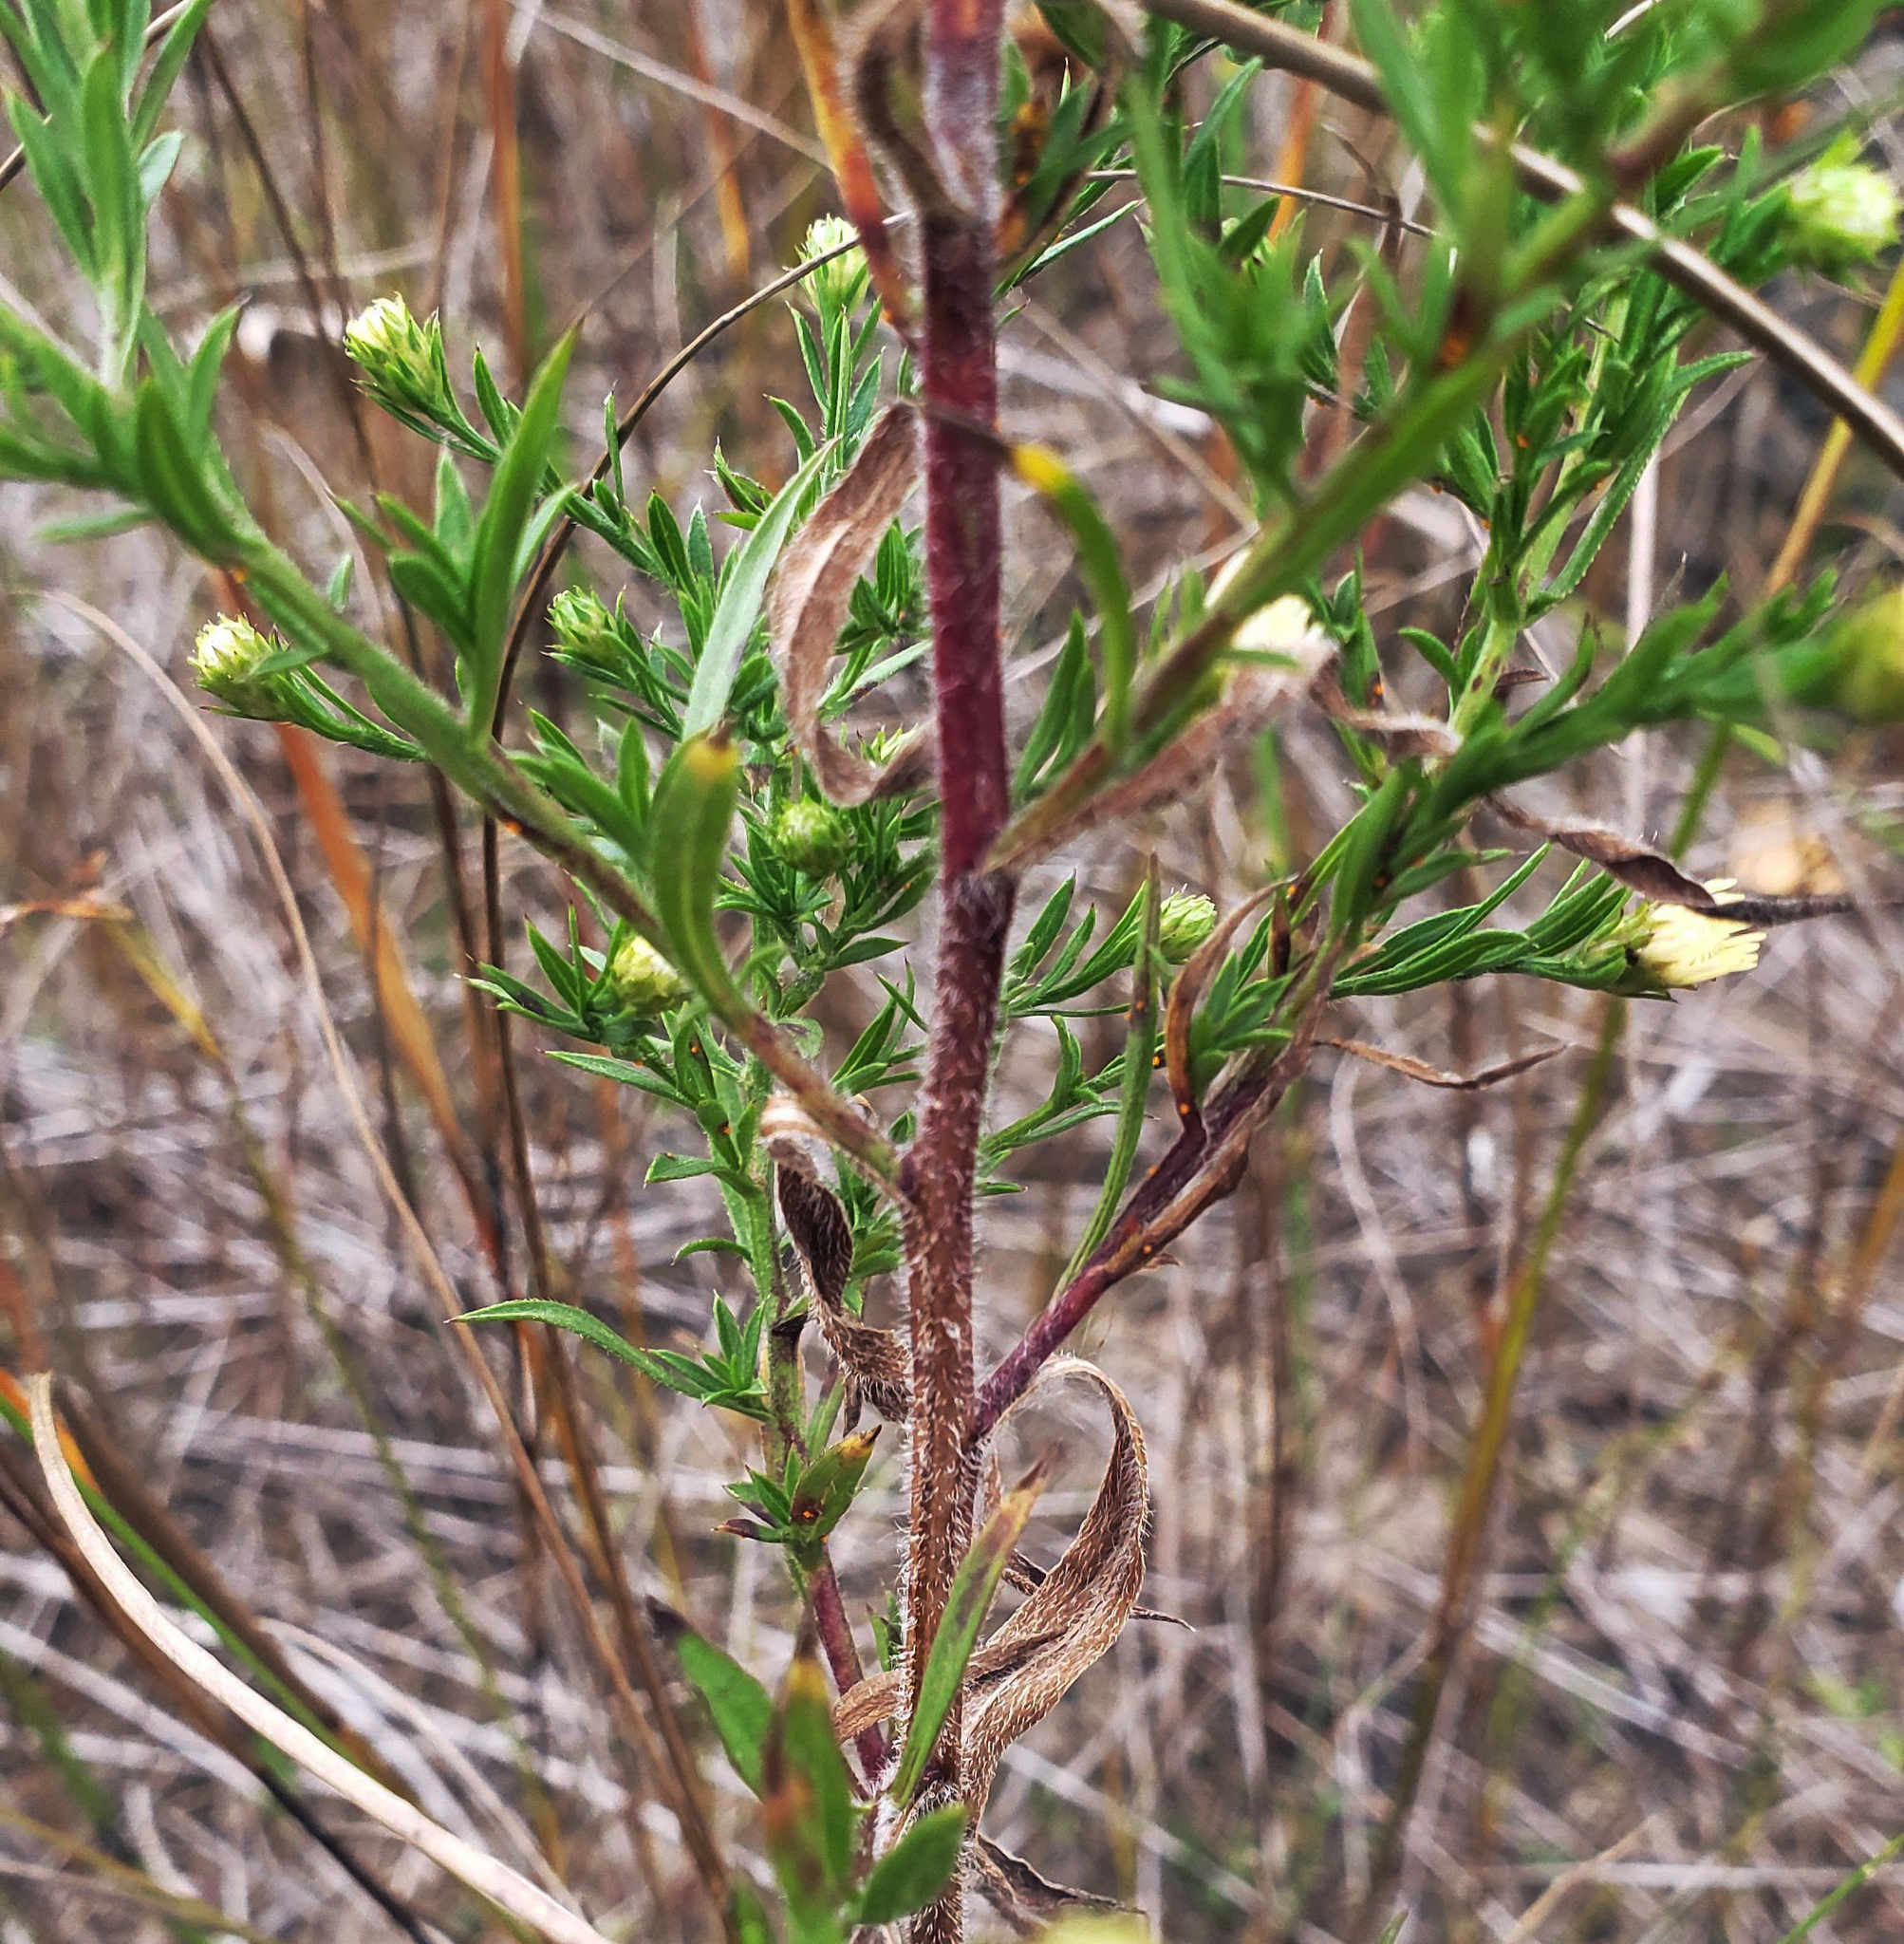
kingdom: Plantae
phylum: Tracheophyta
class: Magnoliopsida
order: Asterales
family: Asteraceae
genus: Symphyotrichum
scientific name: Symphyotrichum pilosum
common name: Awl aster
